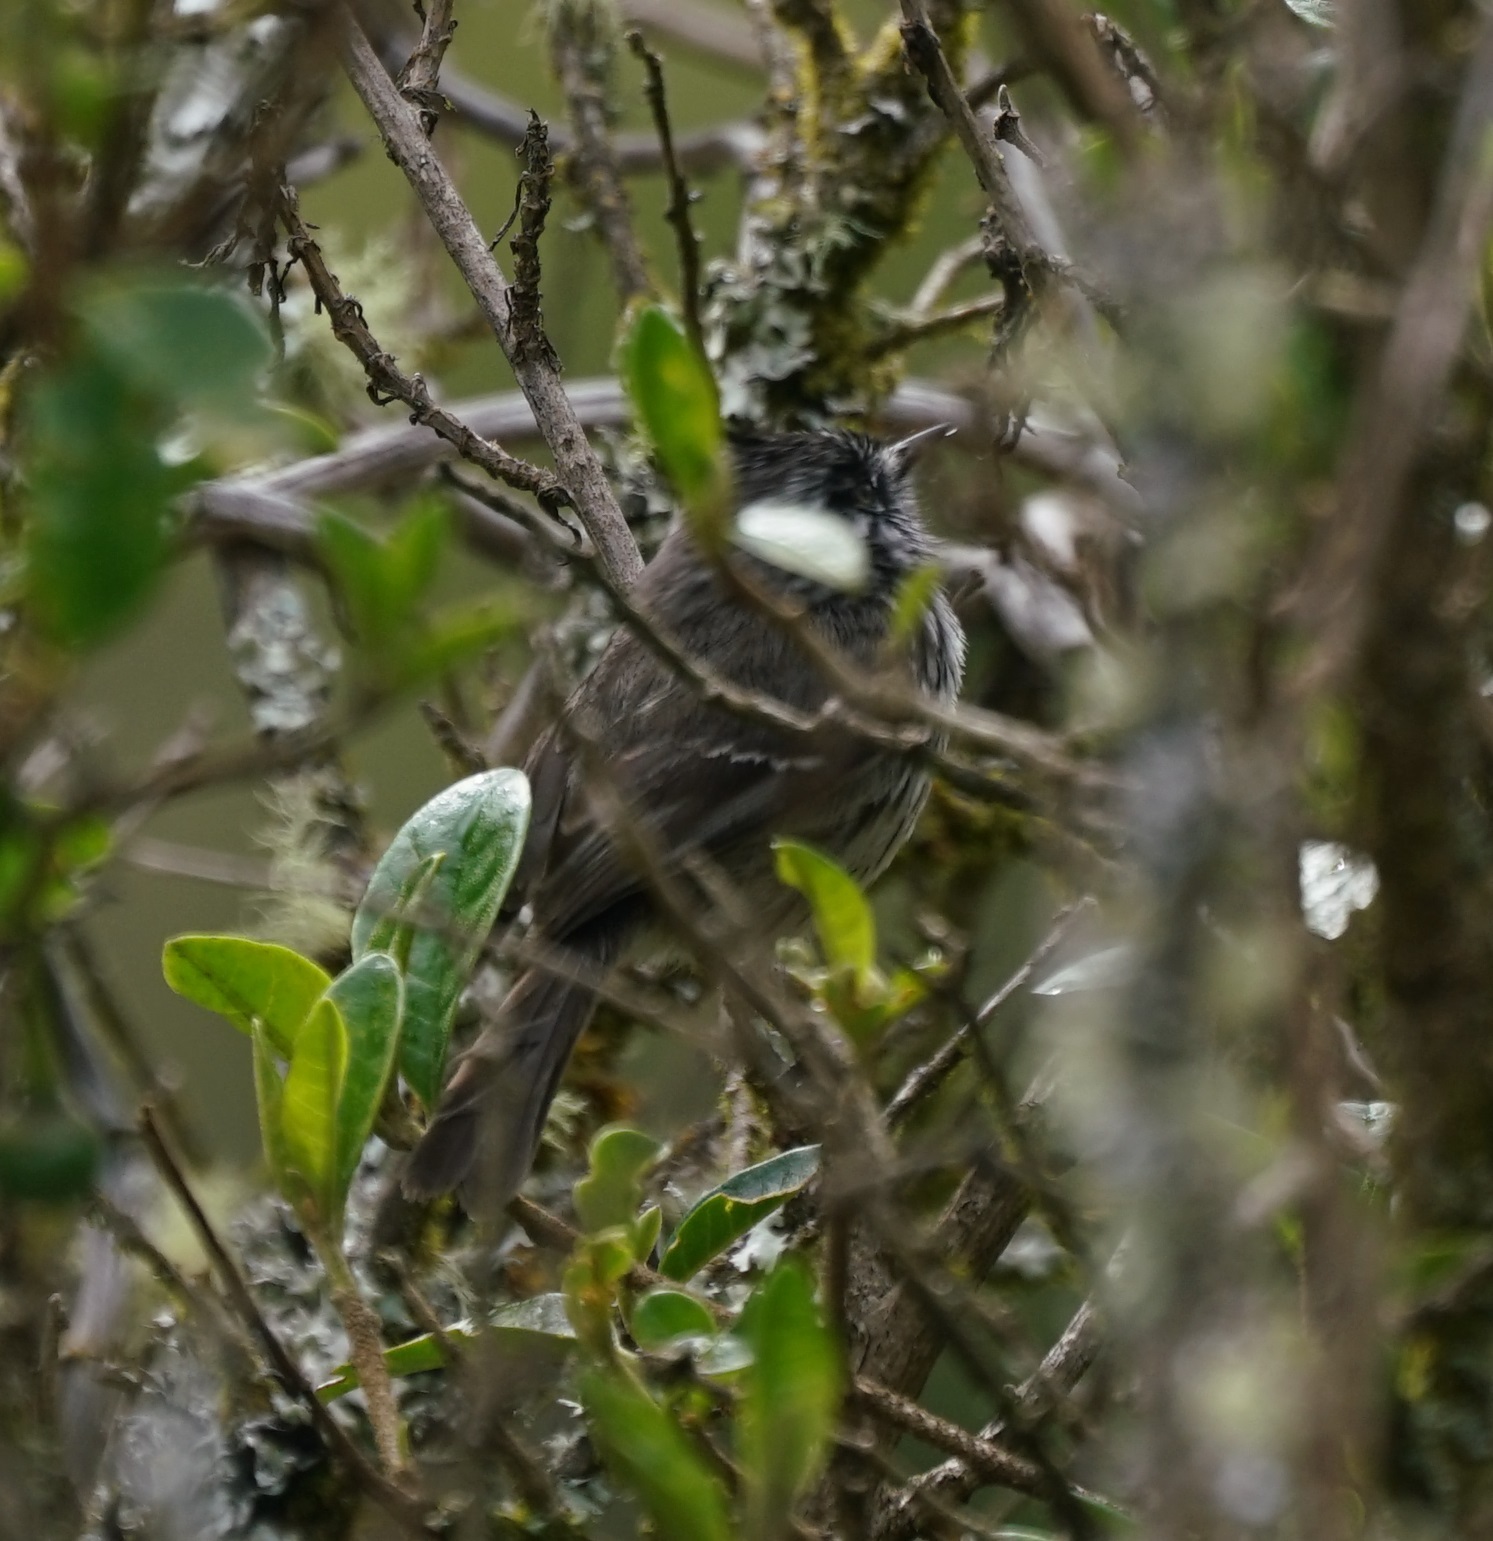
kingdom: Animalia
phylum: Chordata
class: Aves
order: Passeriformes
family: Tyrannidae
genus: Anairetes
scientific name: Anairetes parulus
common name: Tufted tit-tyrant
